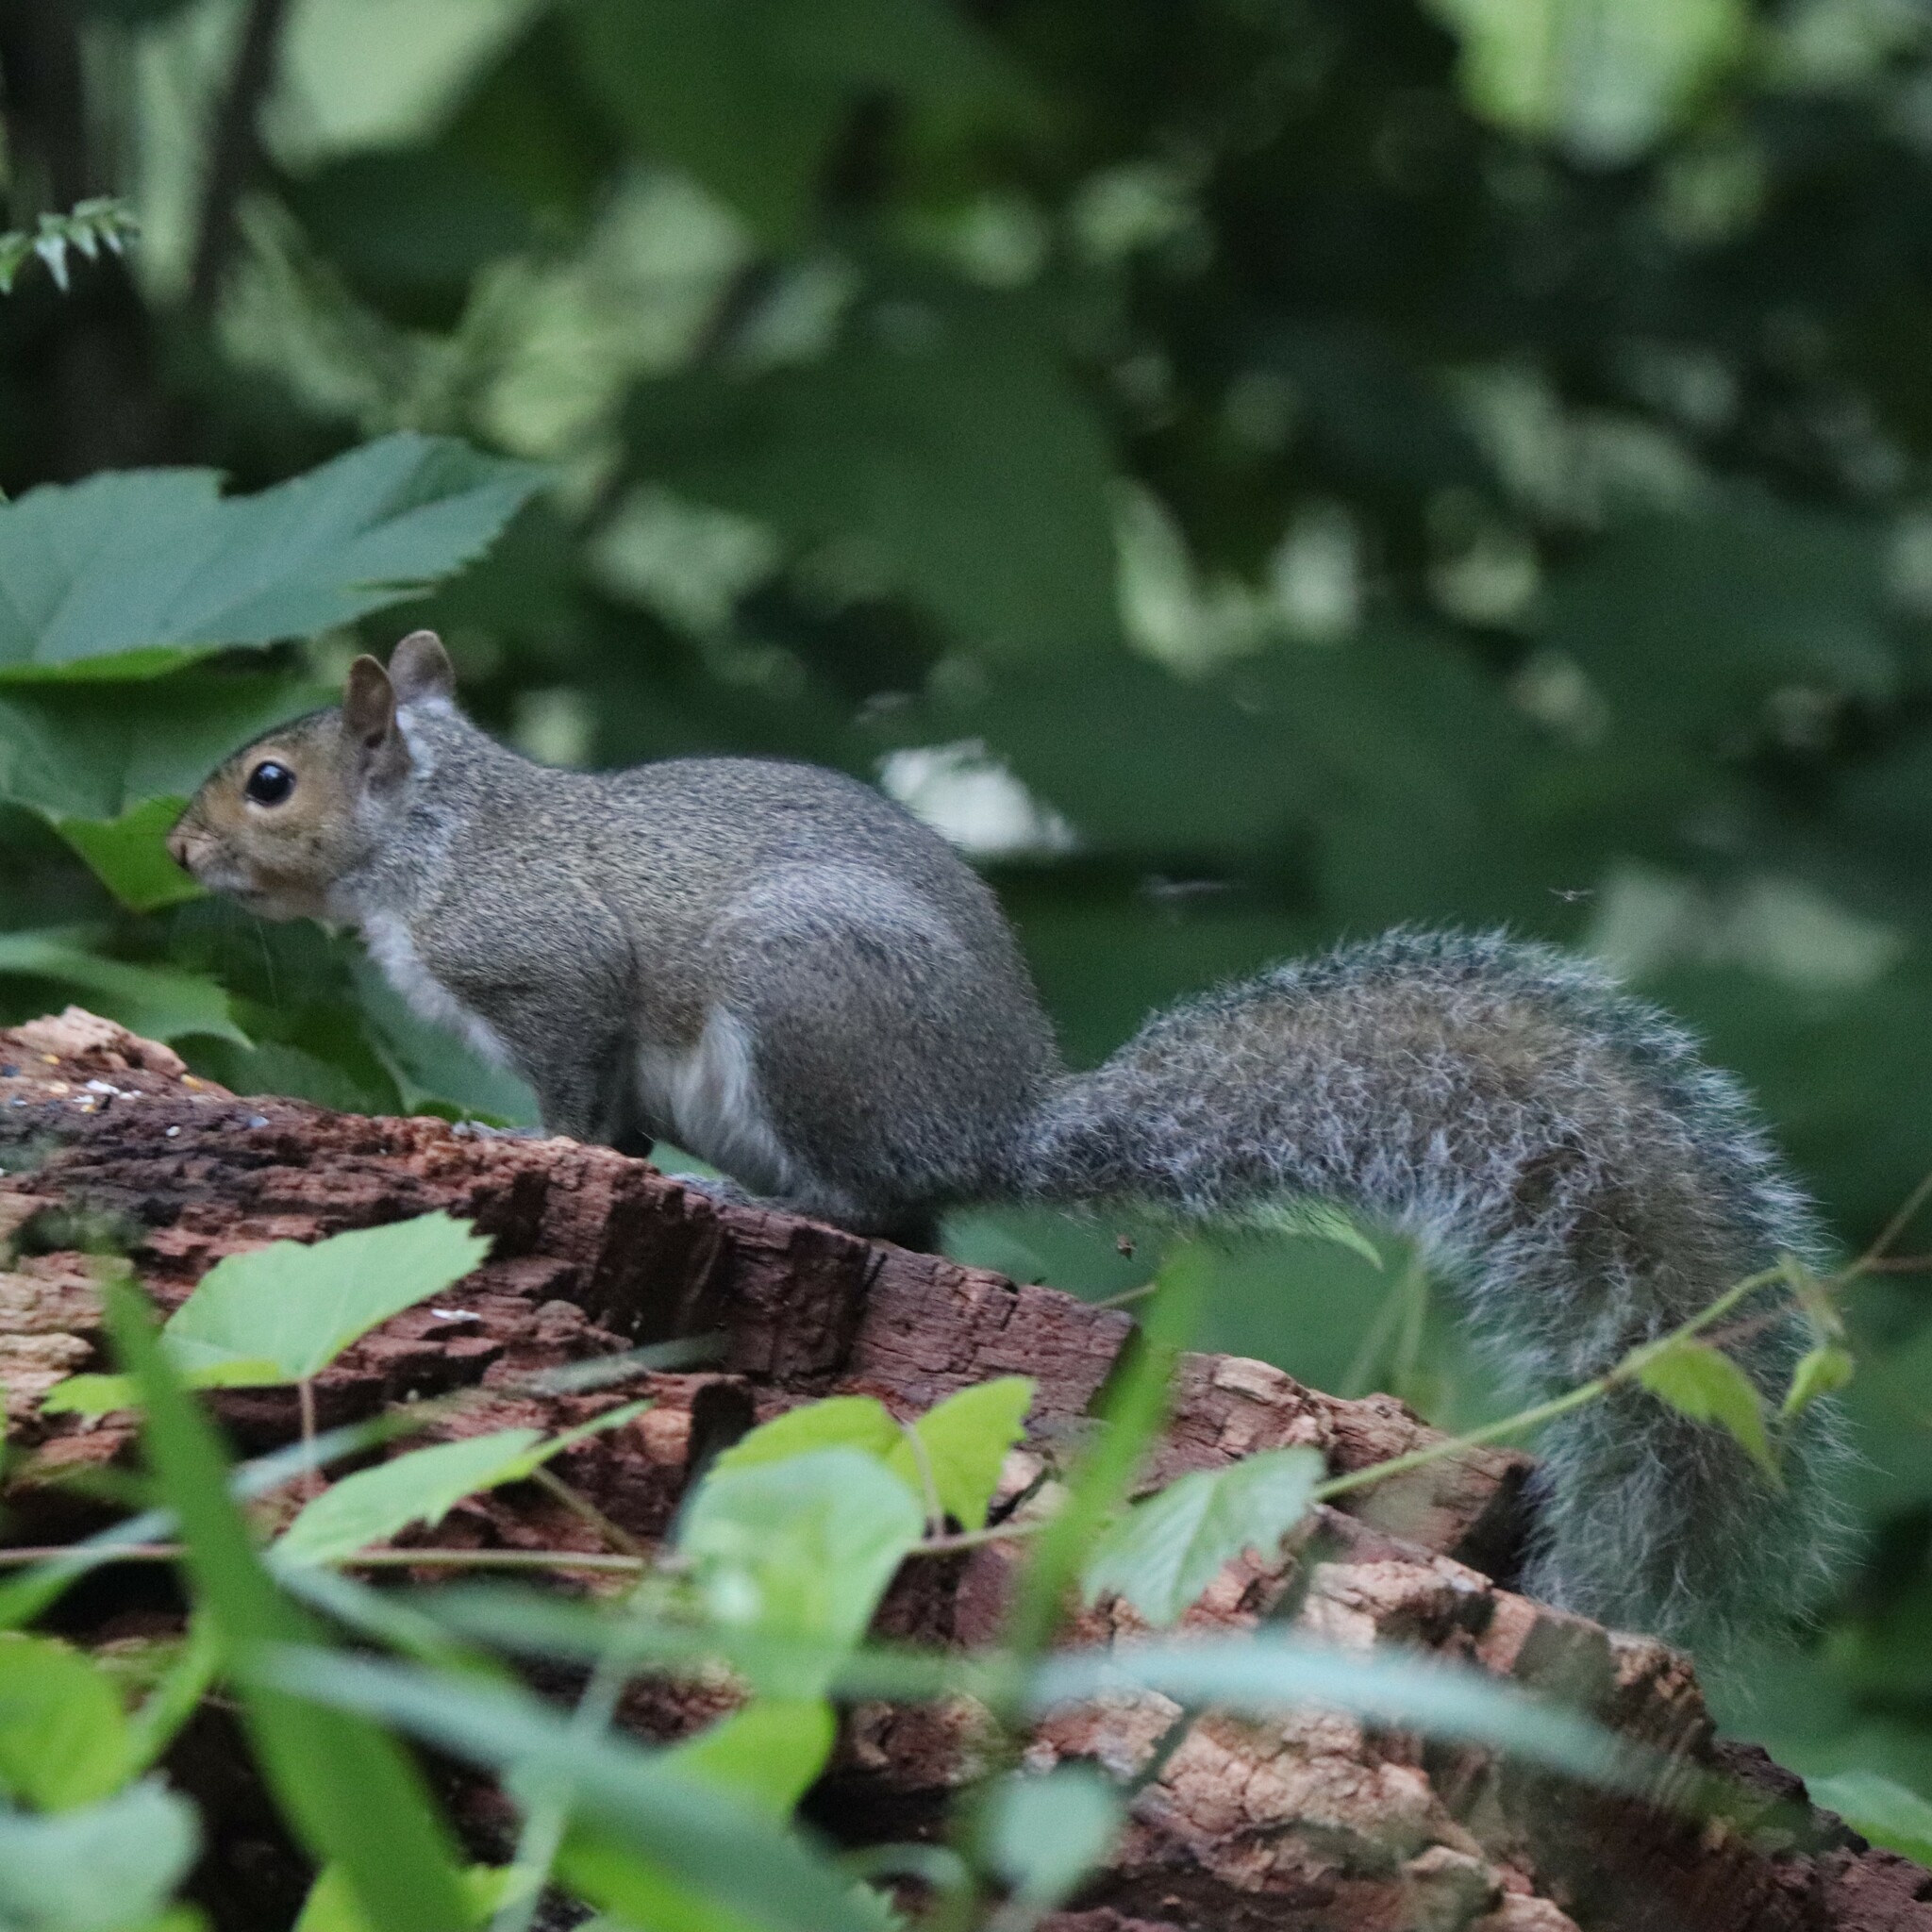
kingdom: Animalia
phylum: Chordata
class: Mammalia
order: Rodentia
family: Sciuridae
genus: Sciurus
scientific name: Sciurus carolinensis
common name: Eastern gray squirrel
